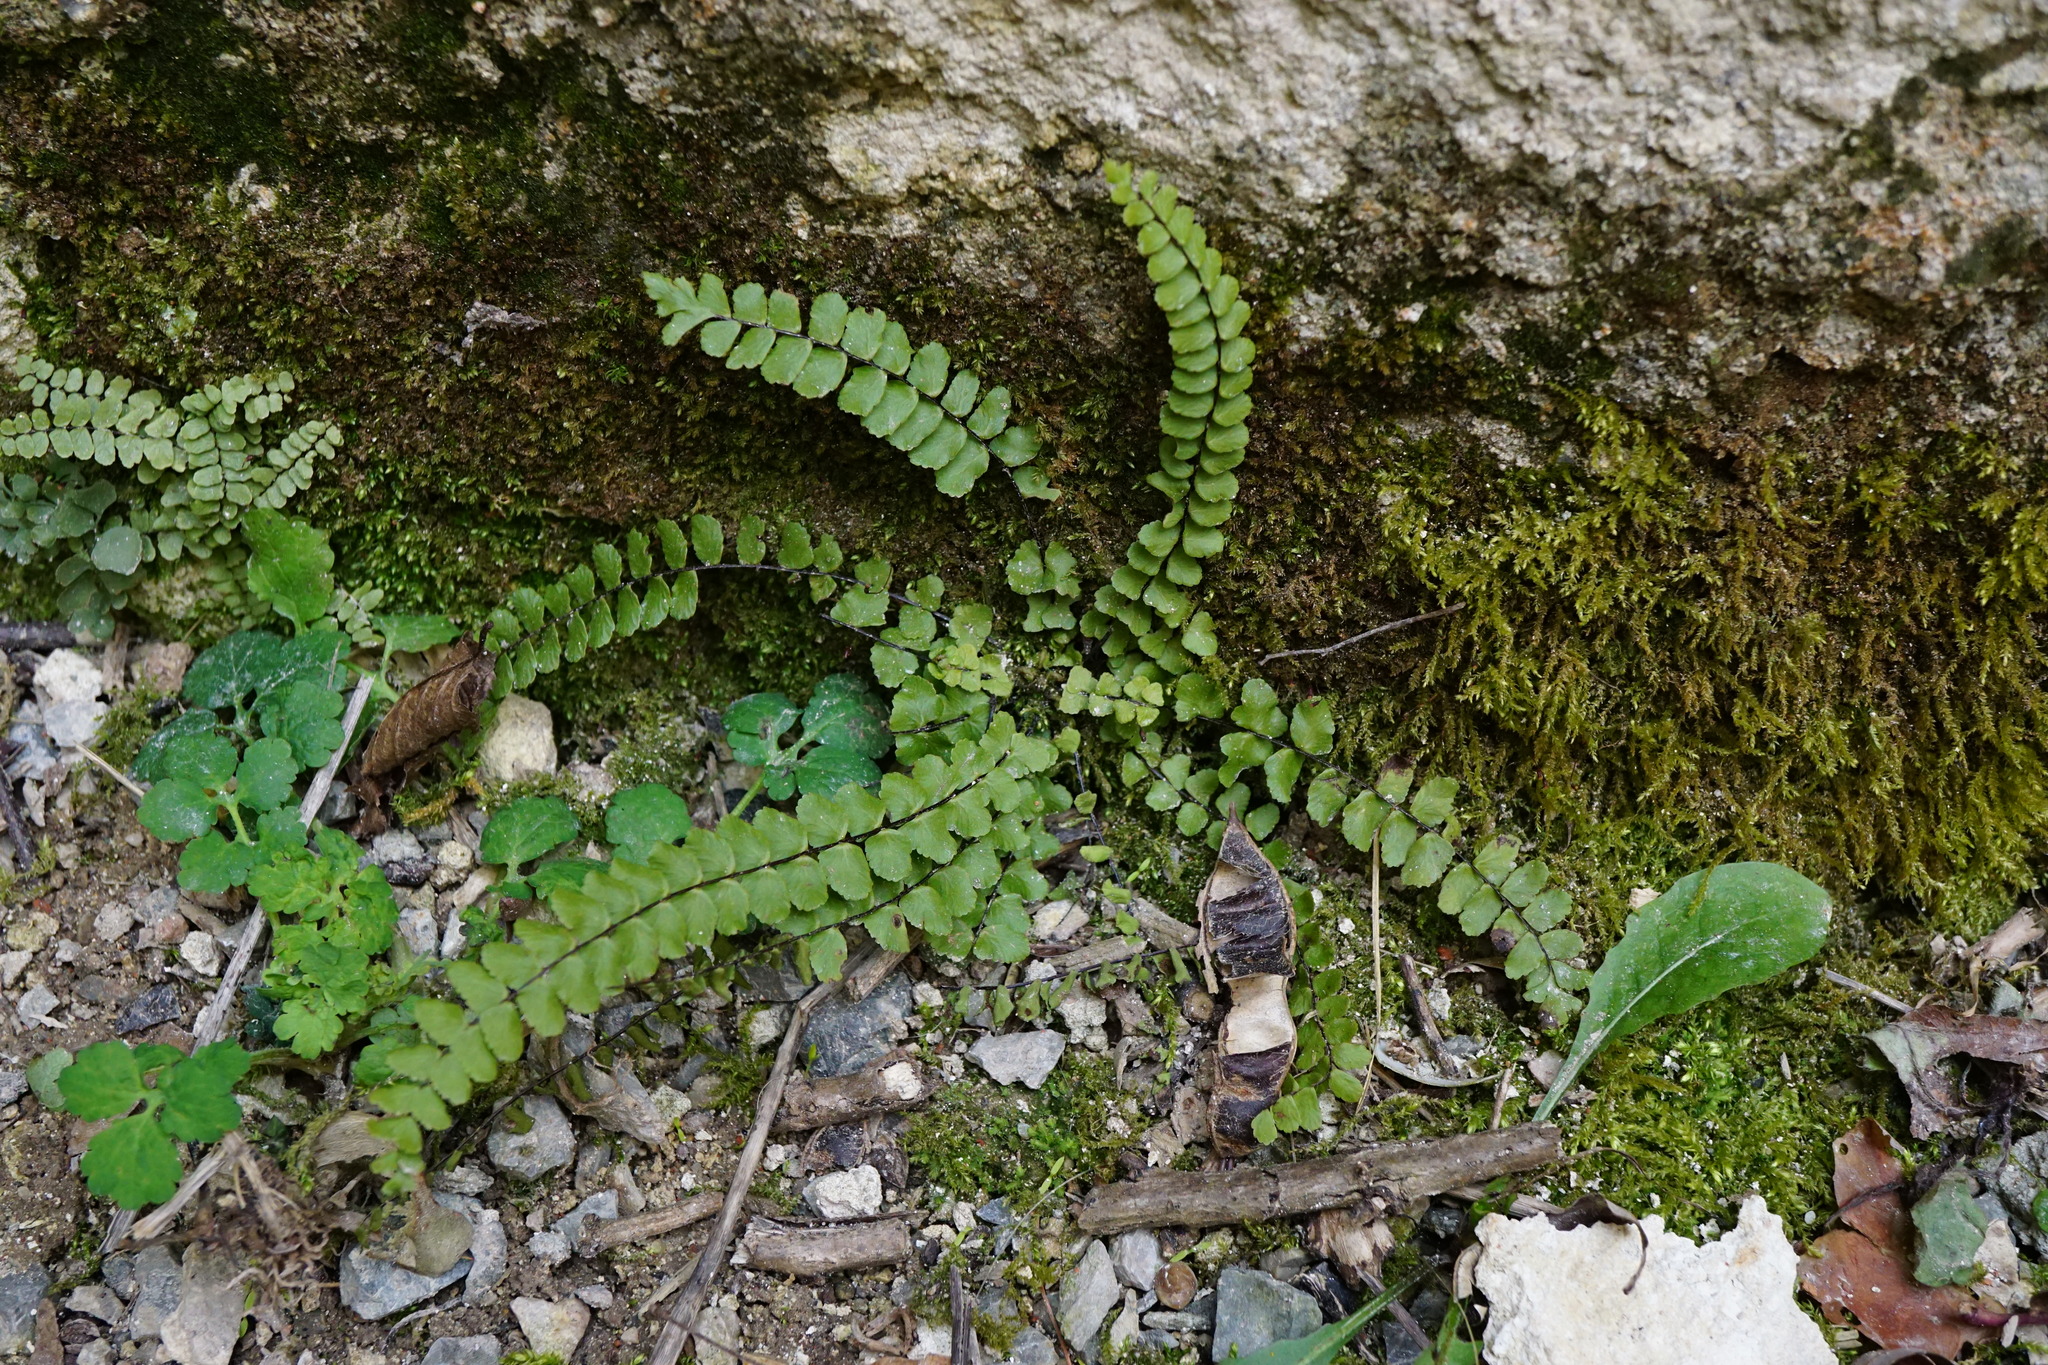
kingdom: Plantae
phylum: Tracheophyta
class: Polypodiopsida
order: Polypodiales
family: Aspleniaceae
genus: Asplenium
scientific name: Asplenium trichomanes
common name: Maidenhair spleenwort
